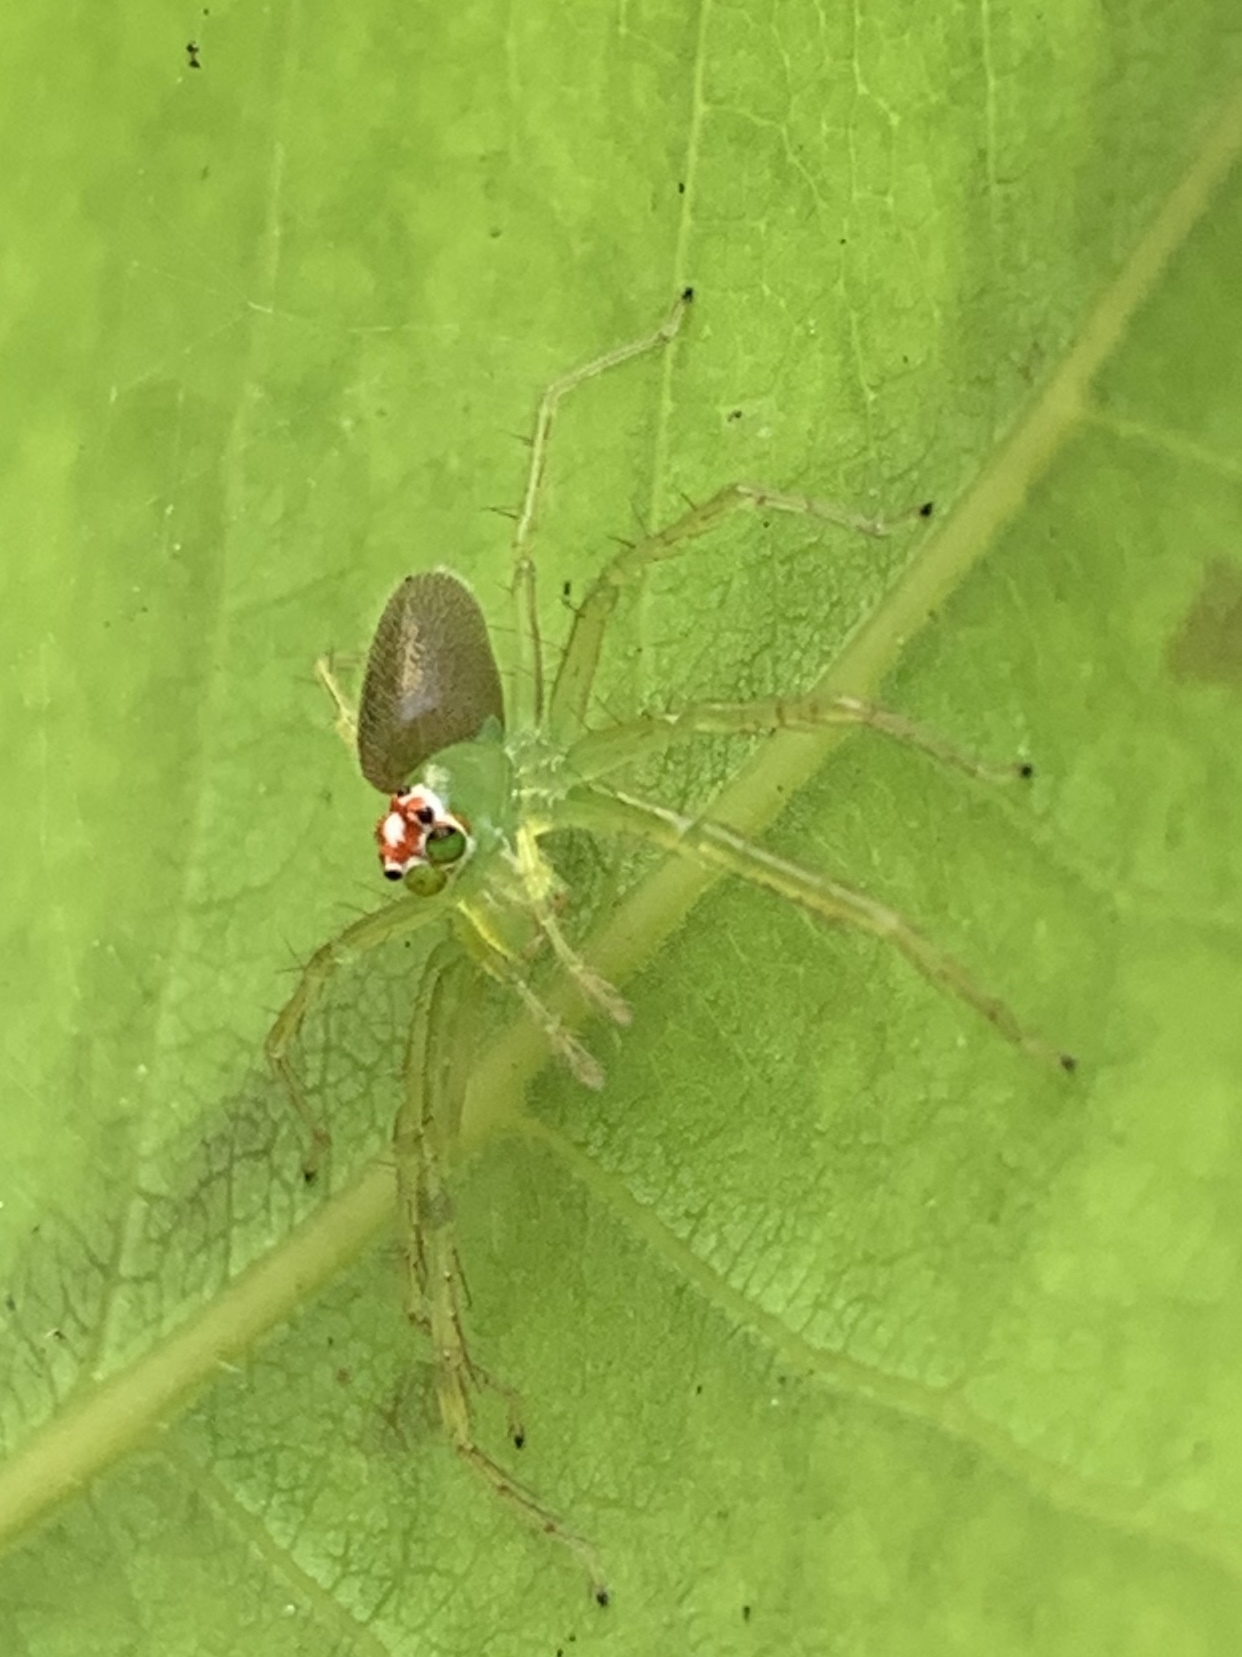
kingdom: Animalia
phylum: Arthropoda
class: Arachnida
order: Araneae
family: Salticidae
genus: Lyssomanes
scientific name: Lyssomanes viridis
